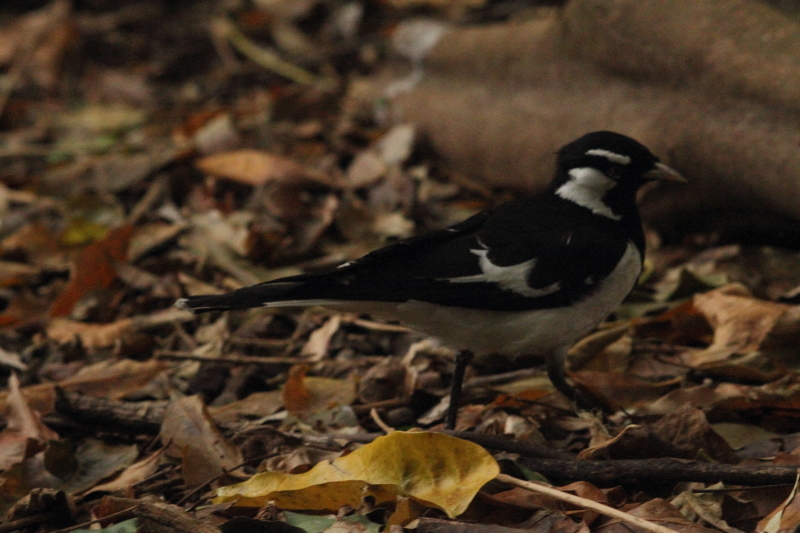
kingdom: Animalia
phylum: Chordata
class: Aves
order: Passeriformes
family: Monarchidae
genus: Grallina
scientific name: Grallina cyanoleuca
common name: Magpie-lark
